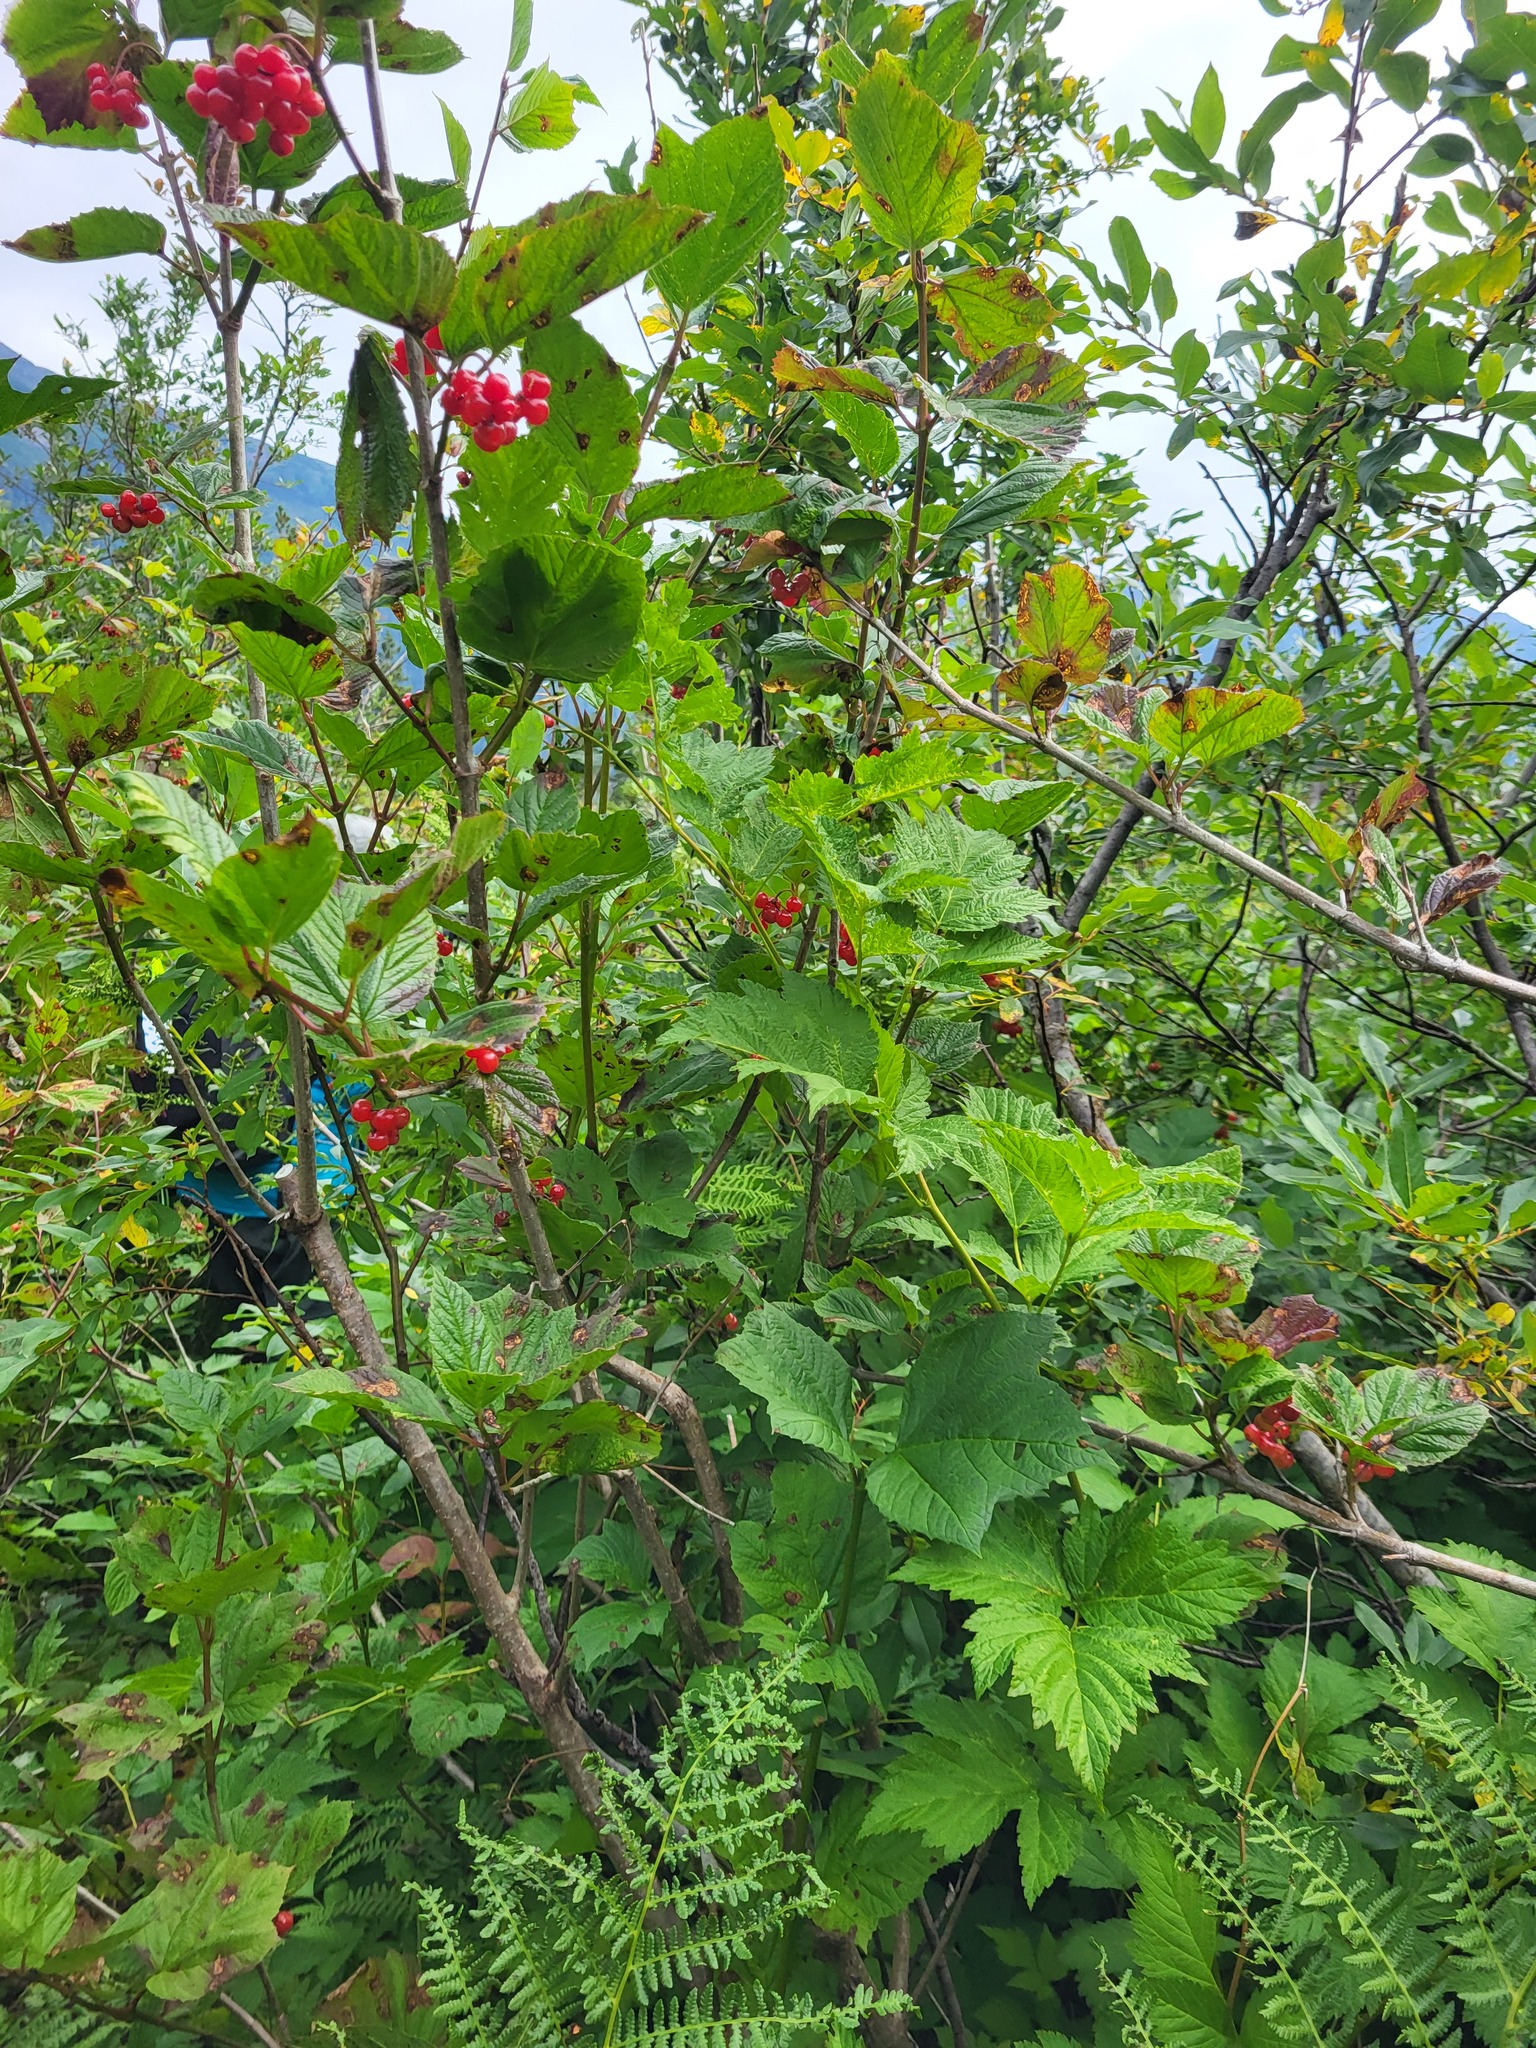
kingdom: Plantae
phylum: Tracheophyta
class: Magnoliopsida
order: Dipsacales
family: Viburnaceae
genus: Viburnum
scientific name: Viburnum edule
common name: Mooseberry
